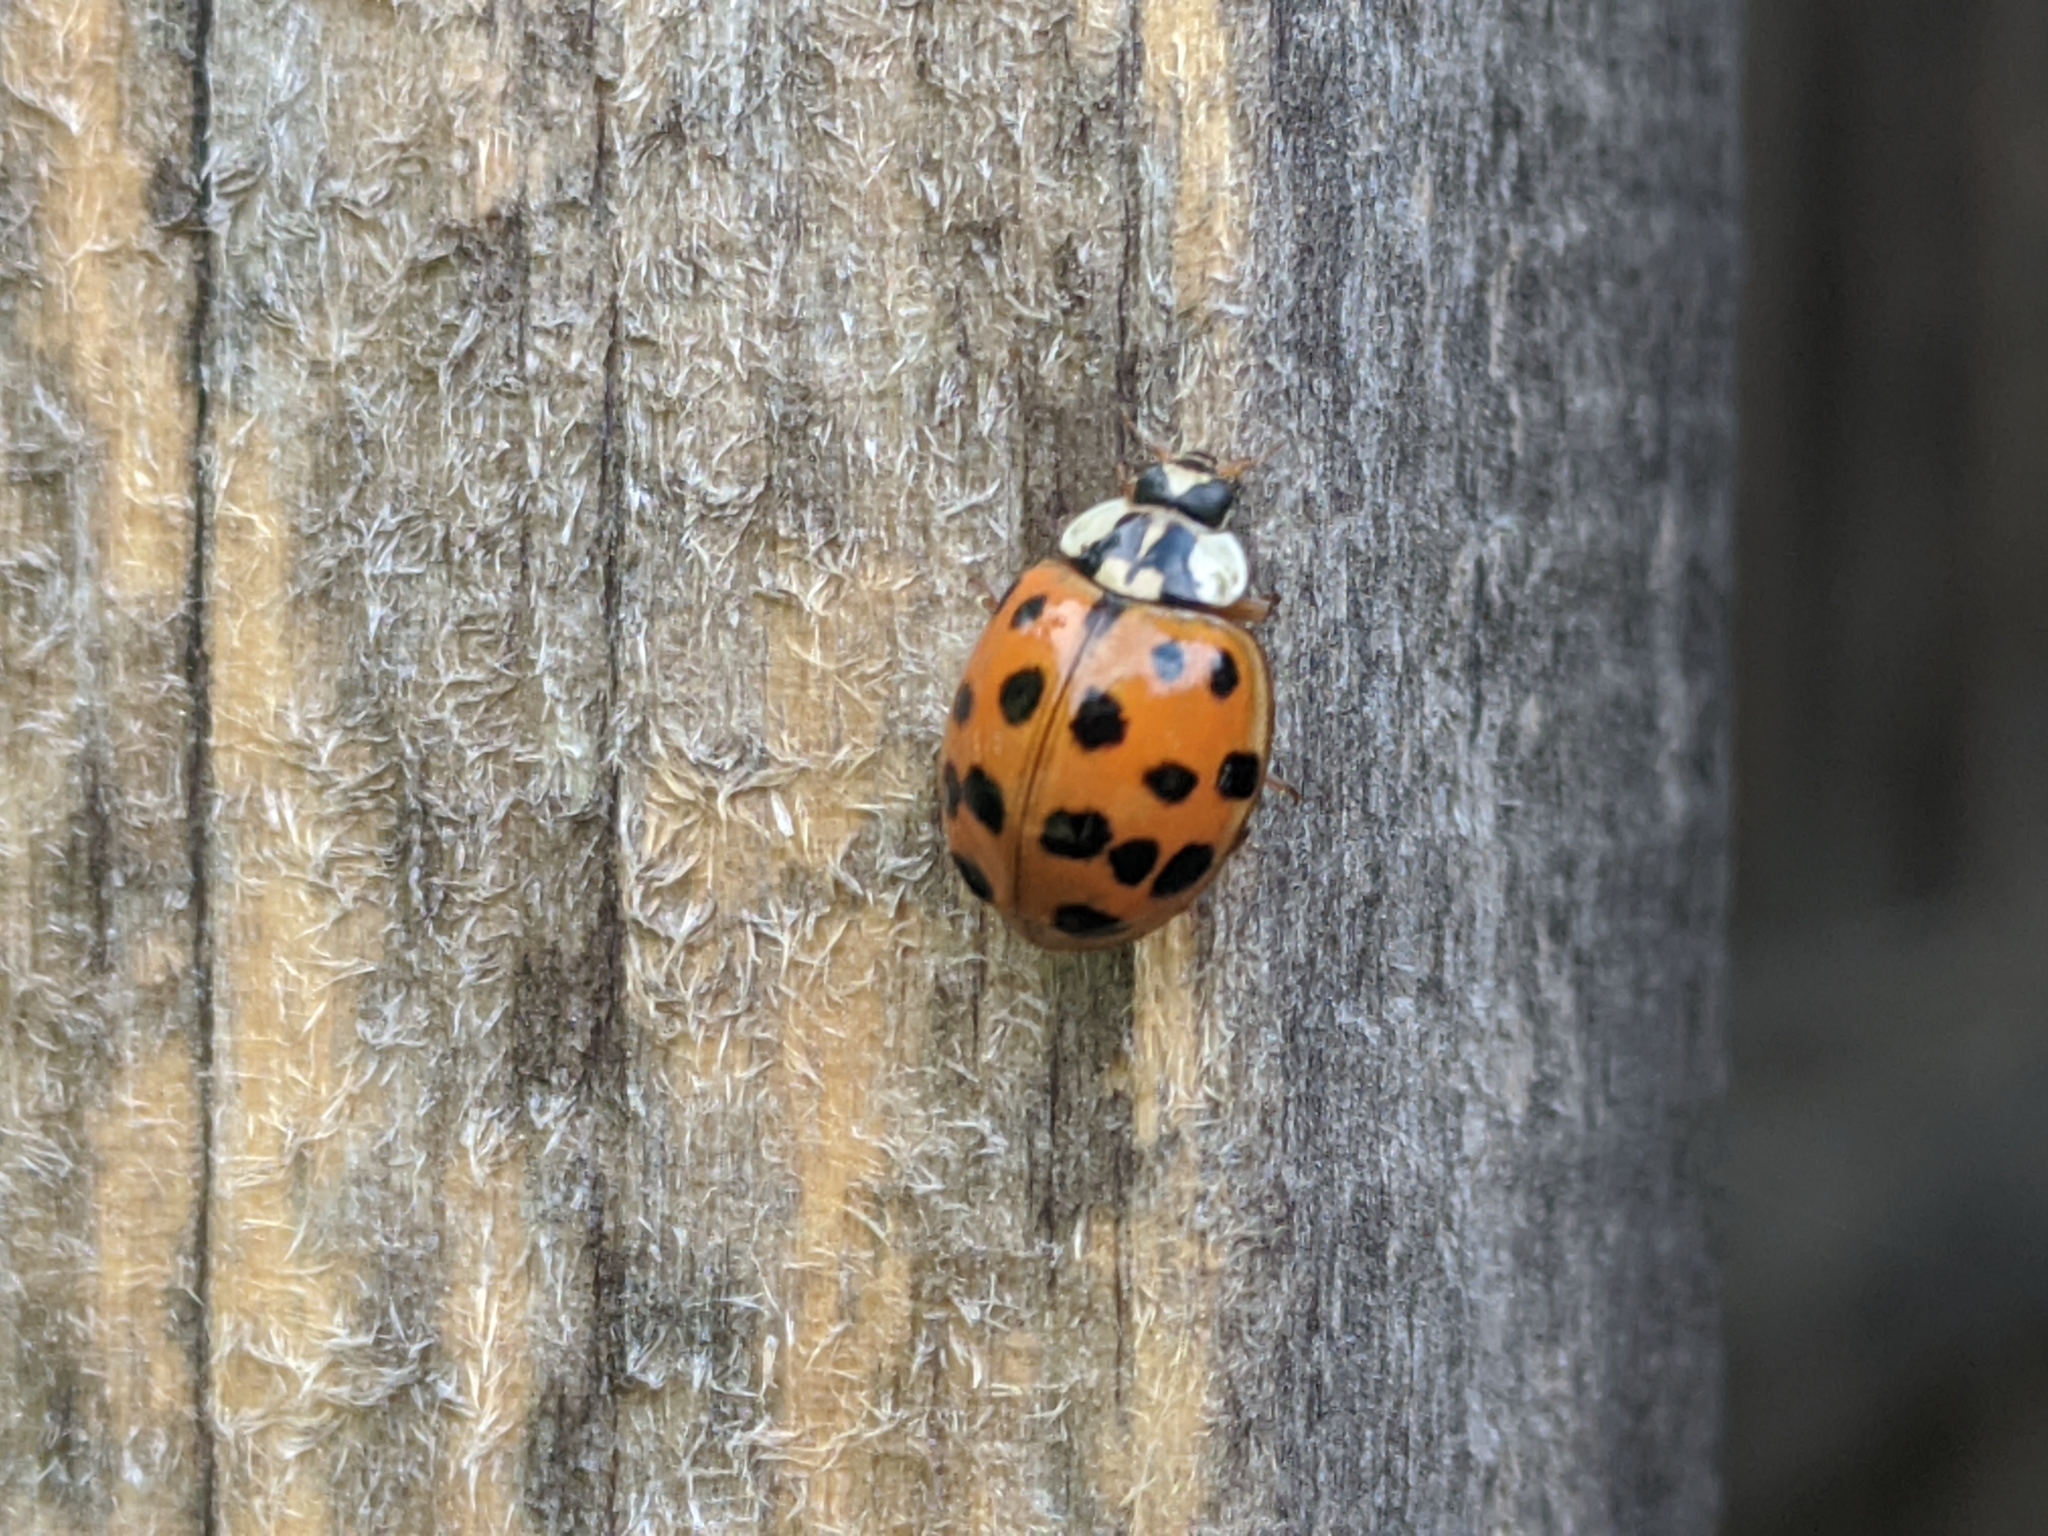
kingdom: Animalia
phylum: Arthropoda
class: Insecta
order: Coleoptera
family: Coccinellidae
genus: Harmonia
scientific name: Harmonia axyridis
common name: Harlequin ladybird
